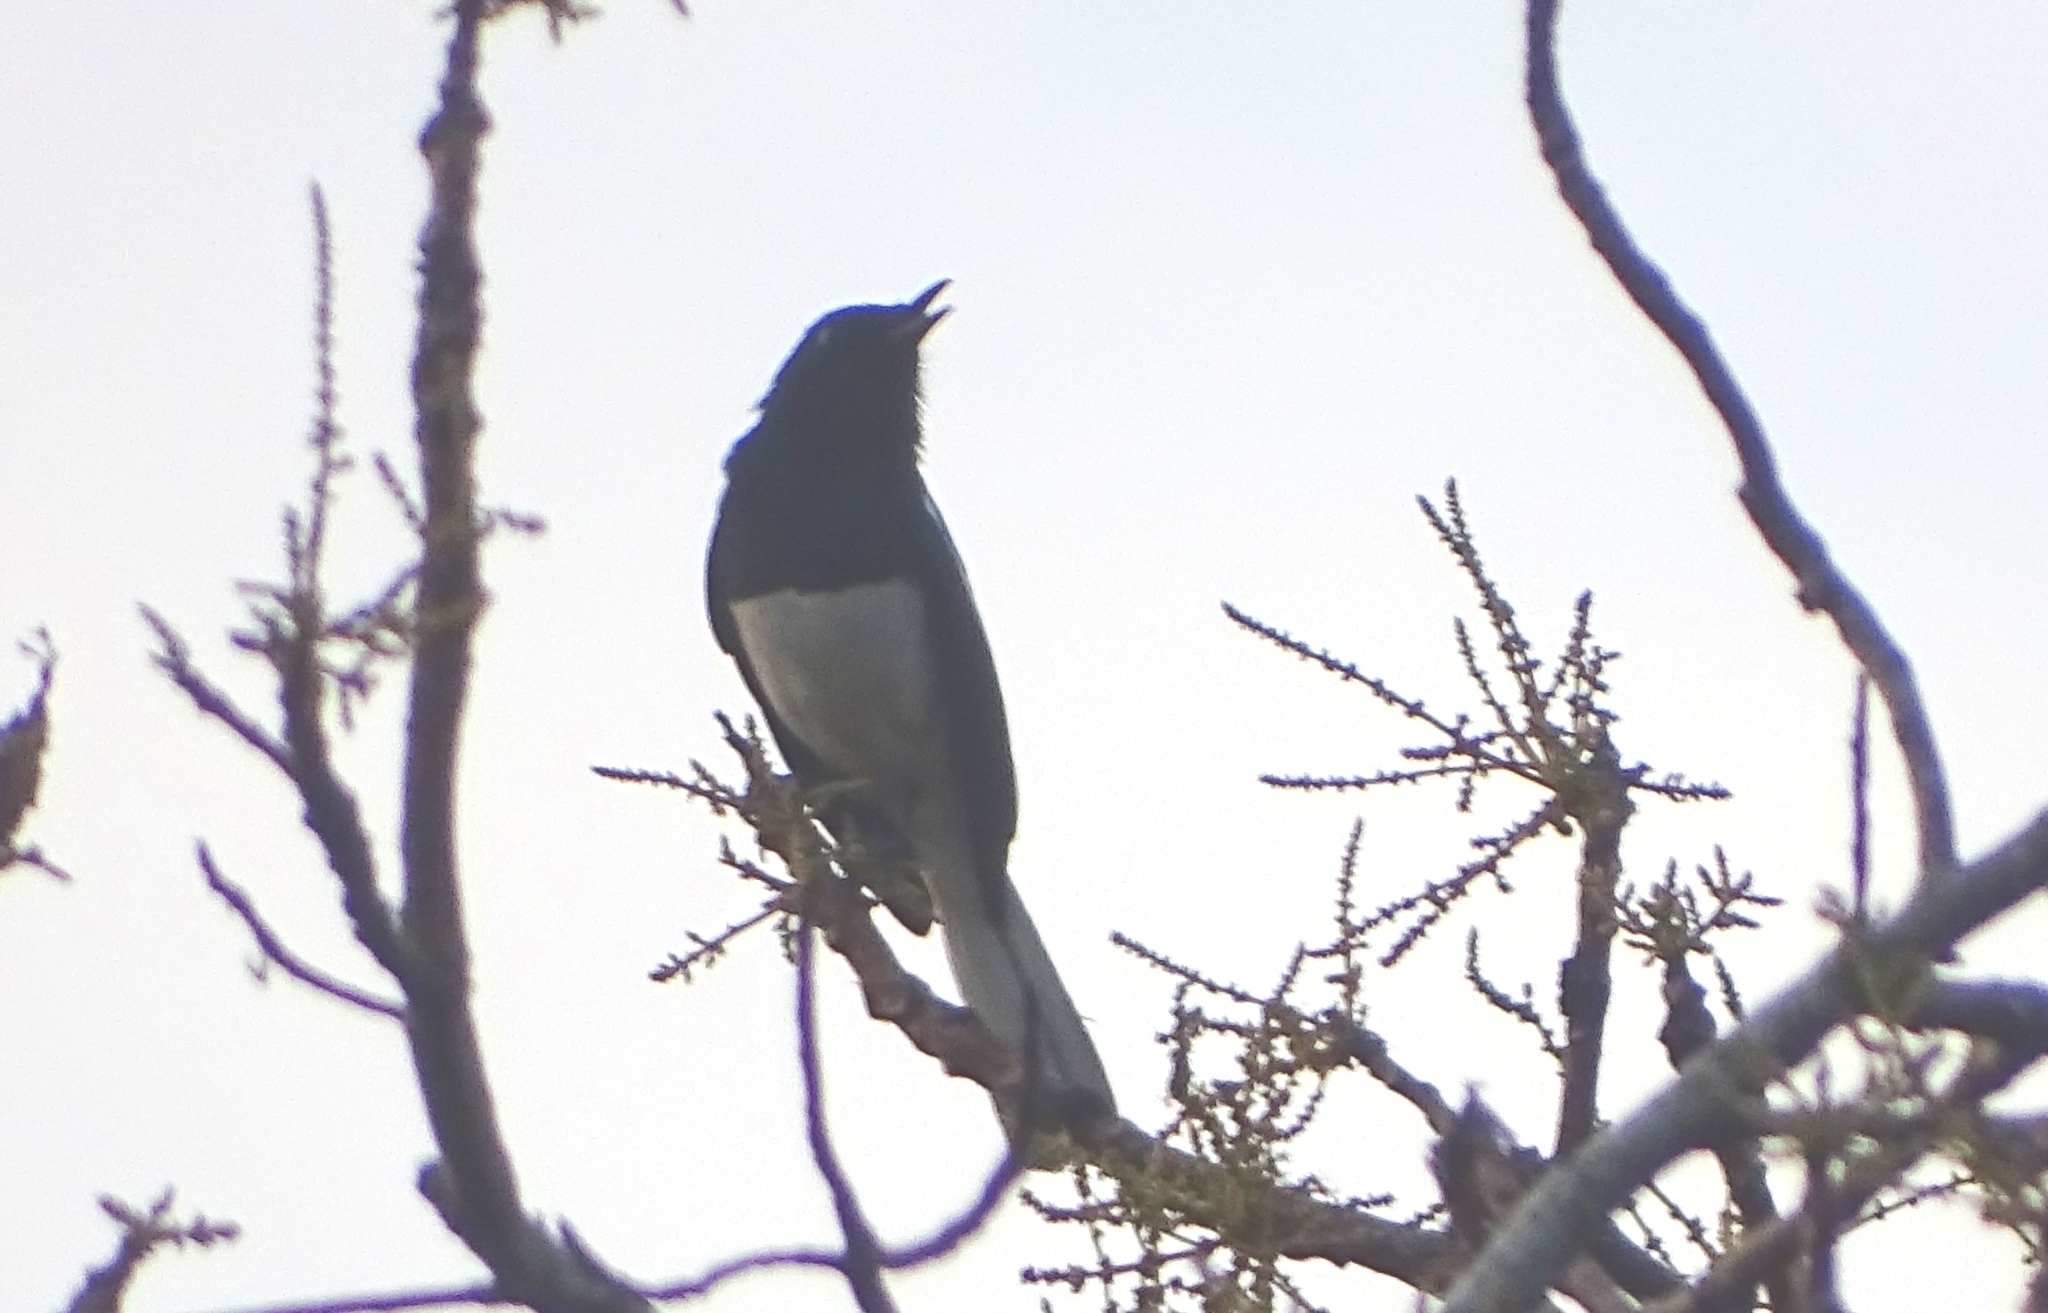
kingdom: Animalia
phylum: Chordata
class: Aves
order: Passeriformes
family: Muscicapidae
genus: Copsychus
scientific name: Copsychus saularis
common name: Oriental magpie-robin
